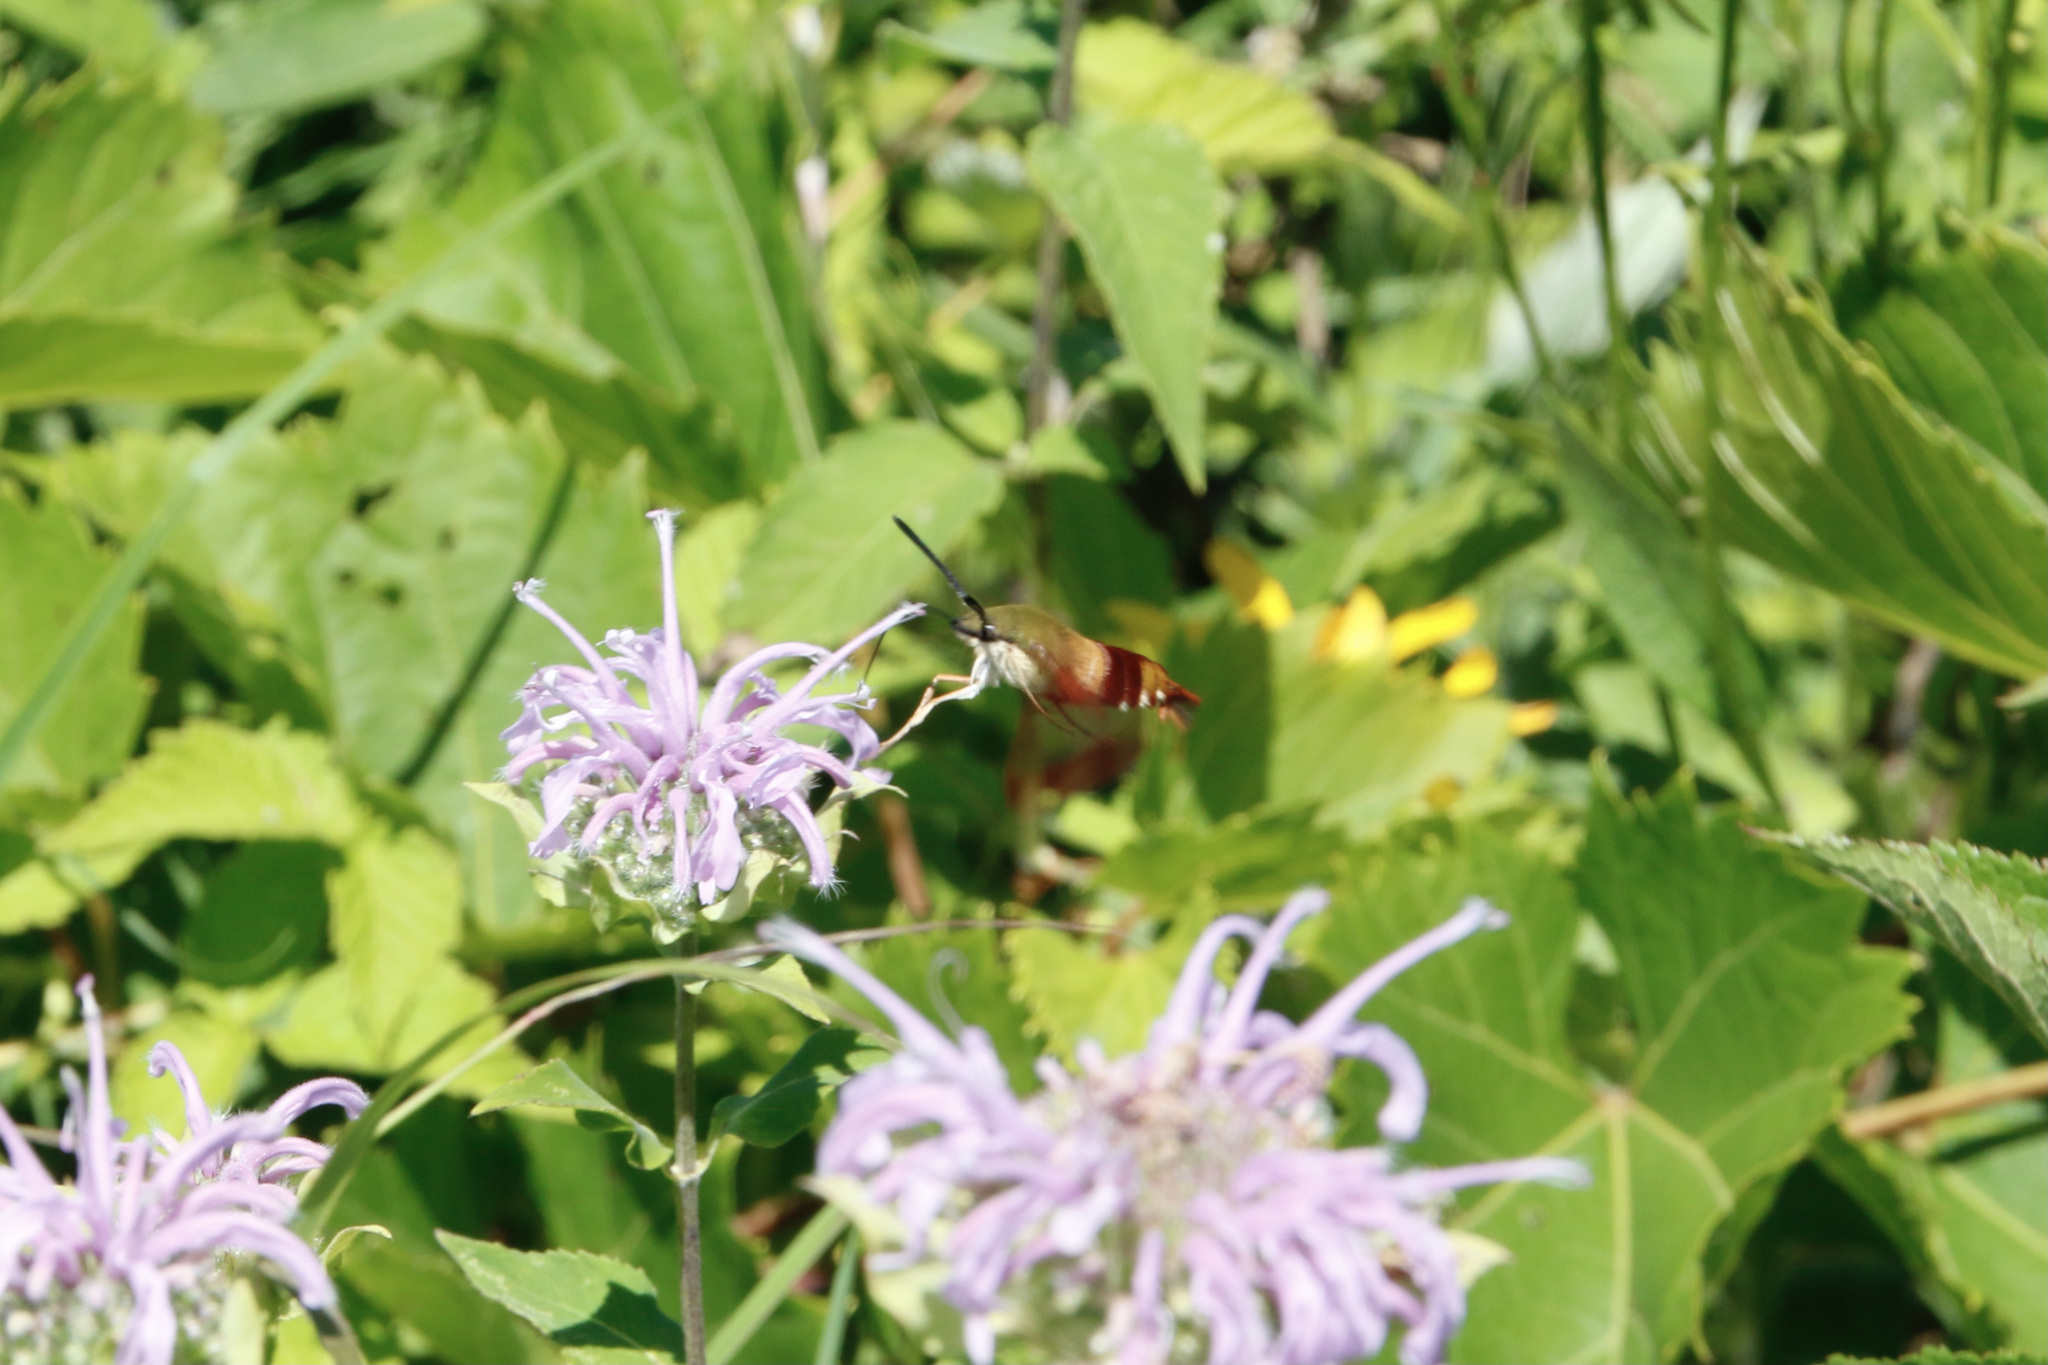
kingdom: Animalia
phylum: Arthropoda
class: Insecta
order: Lepidoptera
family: Sphingidae
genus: Hemaris
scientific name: Hemaris thysbe
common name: Common clear-wing
